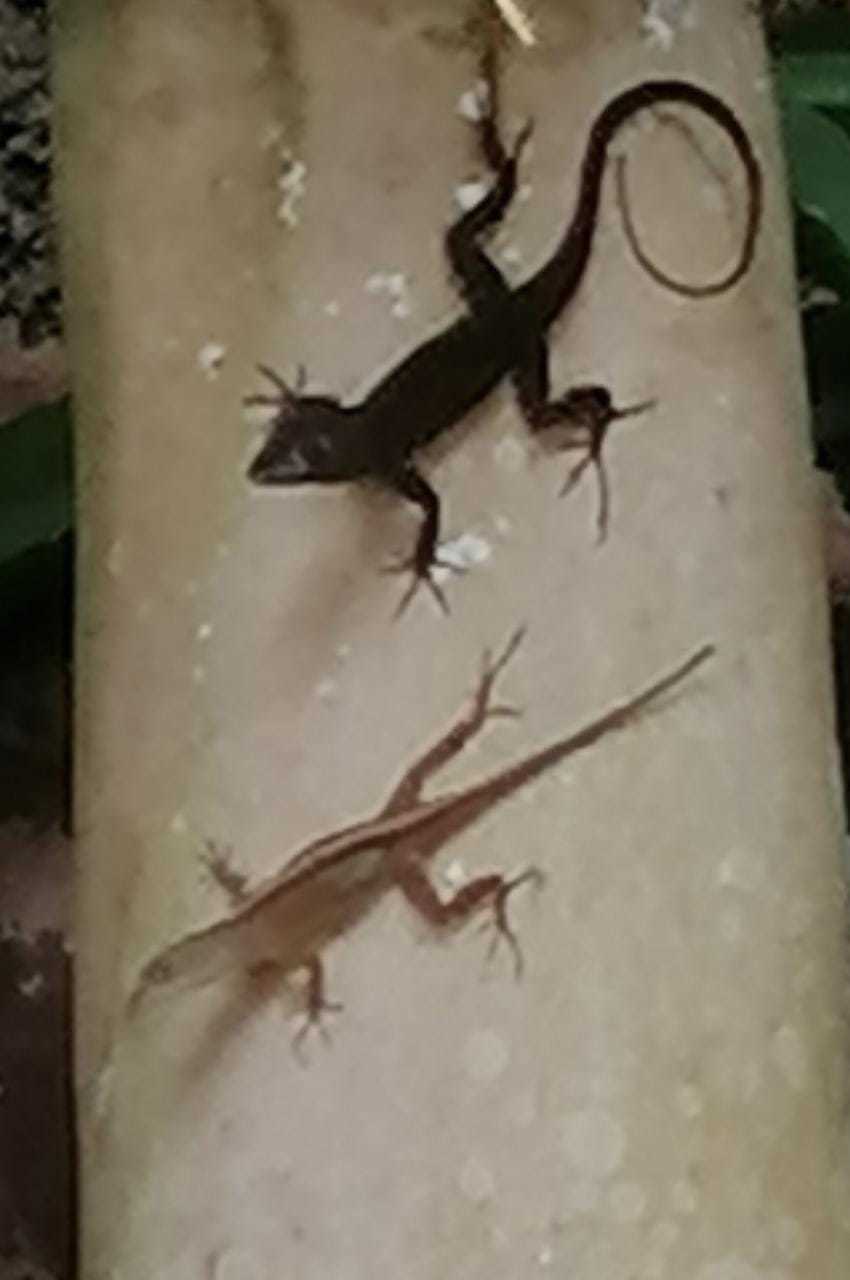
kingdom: Animalia
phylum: Chordata
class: Squamata
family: Dactyloidae
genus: Anolis
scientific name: Anolis sagrei
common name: Brown anole
